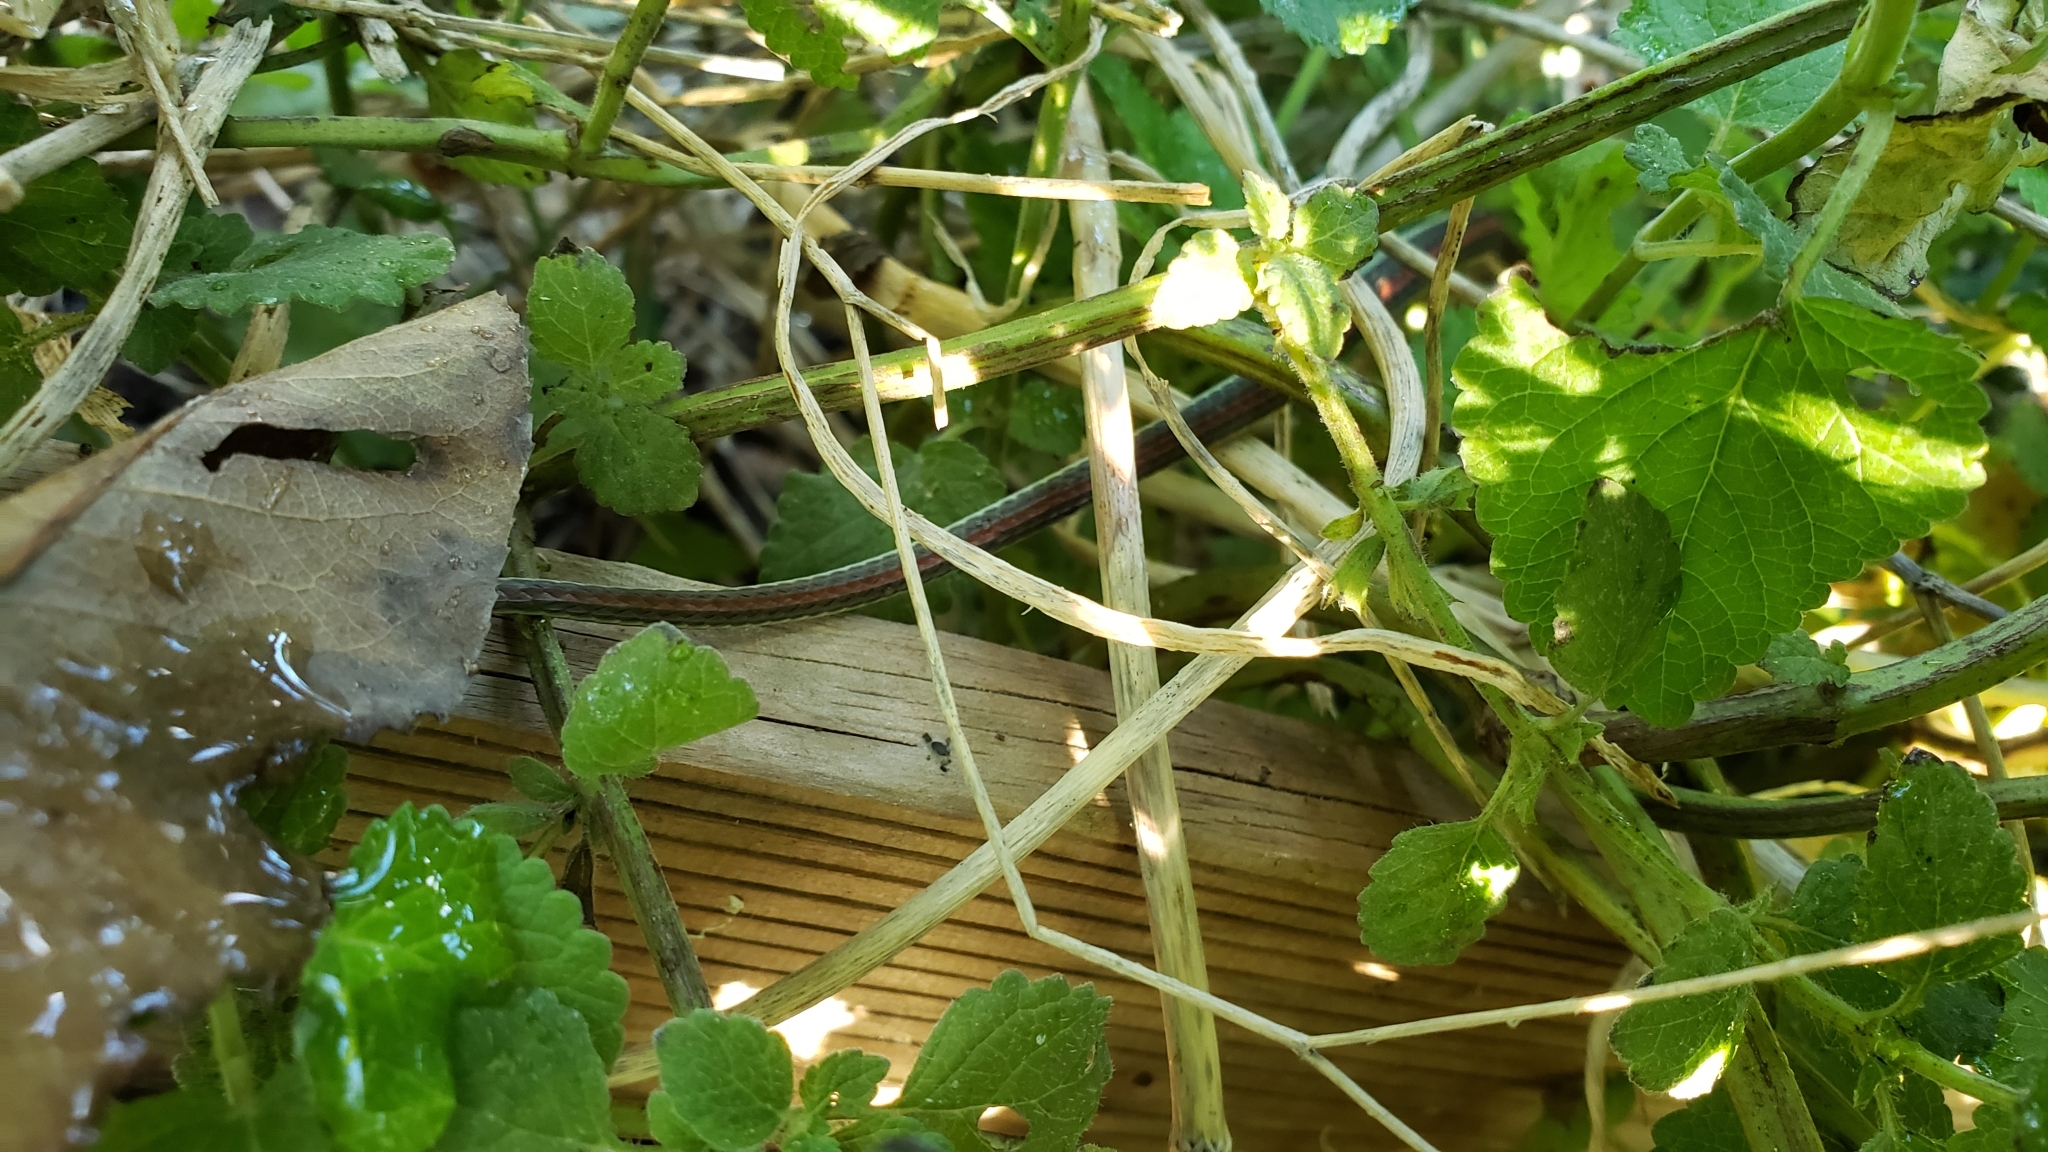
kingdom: Animalia
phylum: Chordata
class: Squamata
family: Colubridae
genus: Thamnophis
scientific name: Thamnophis proximus
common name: Western ribbon snake
